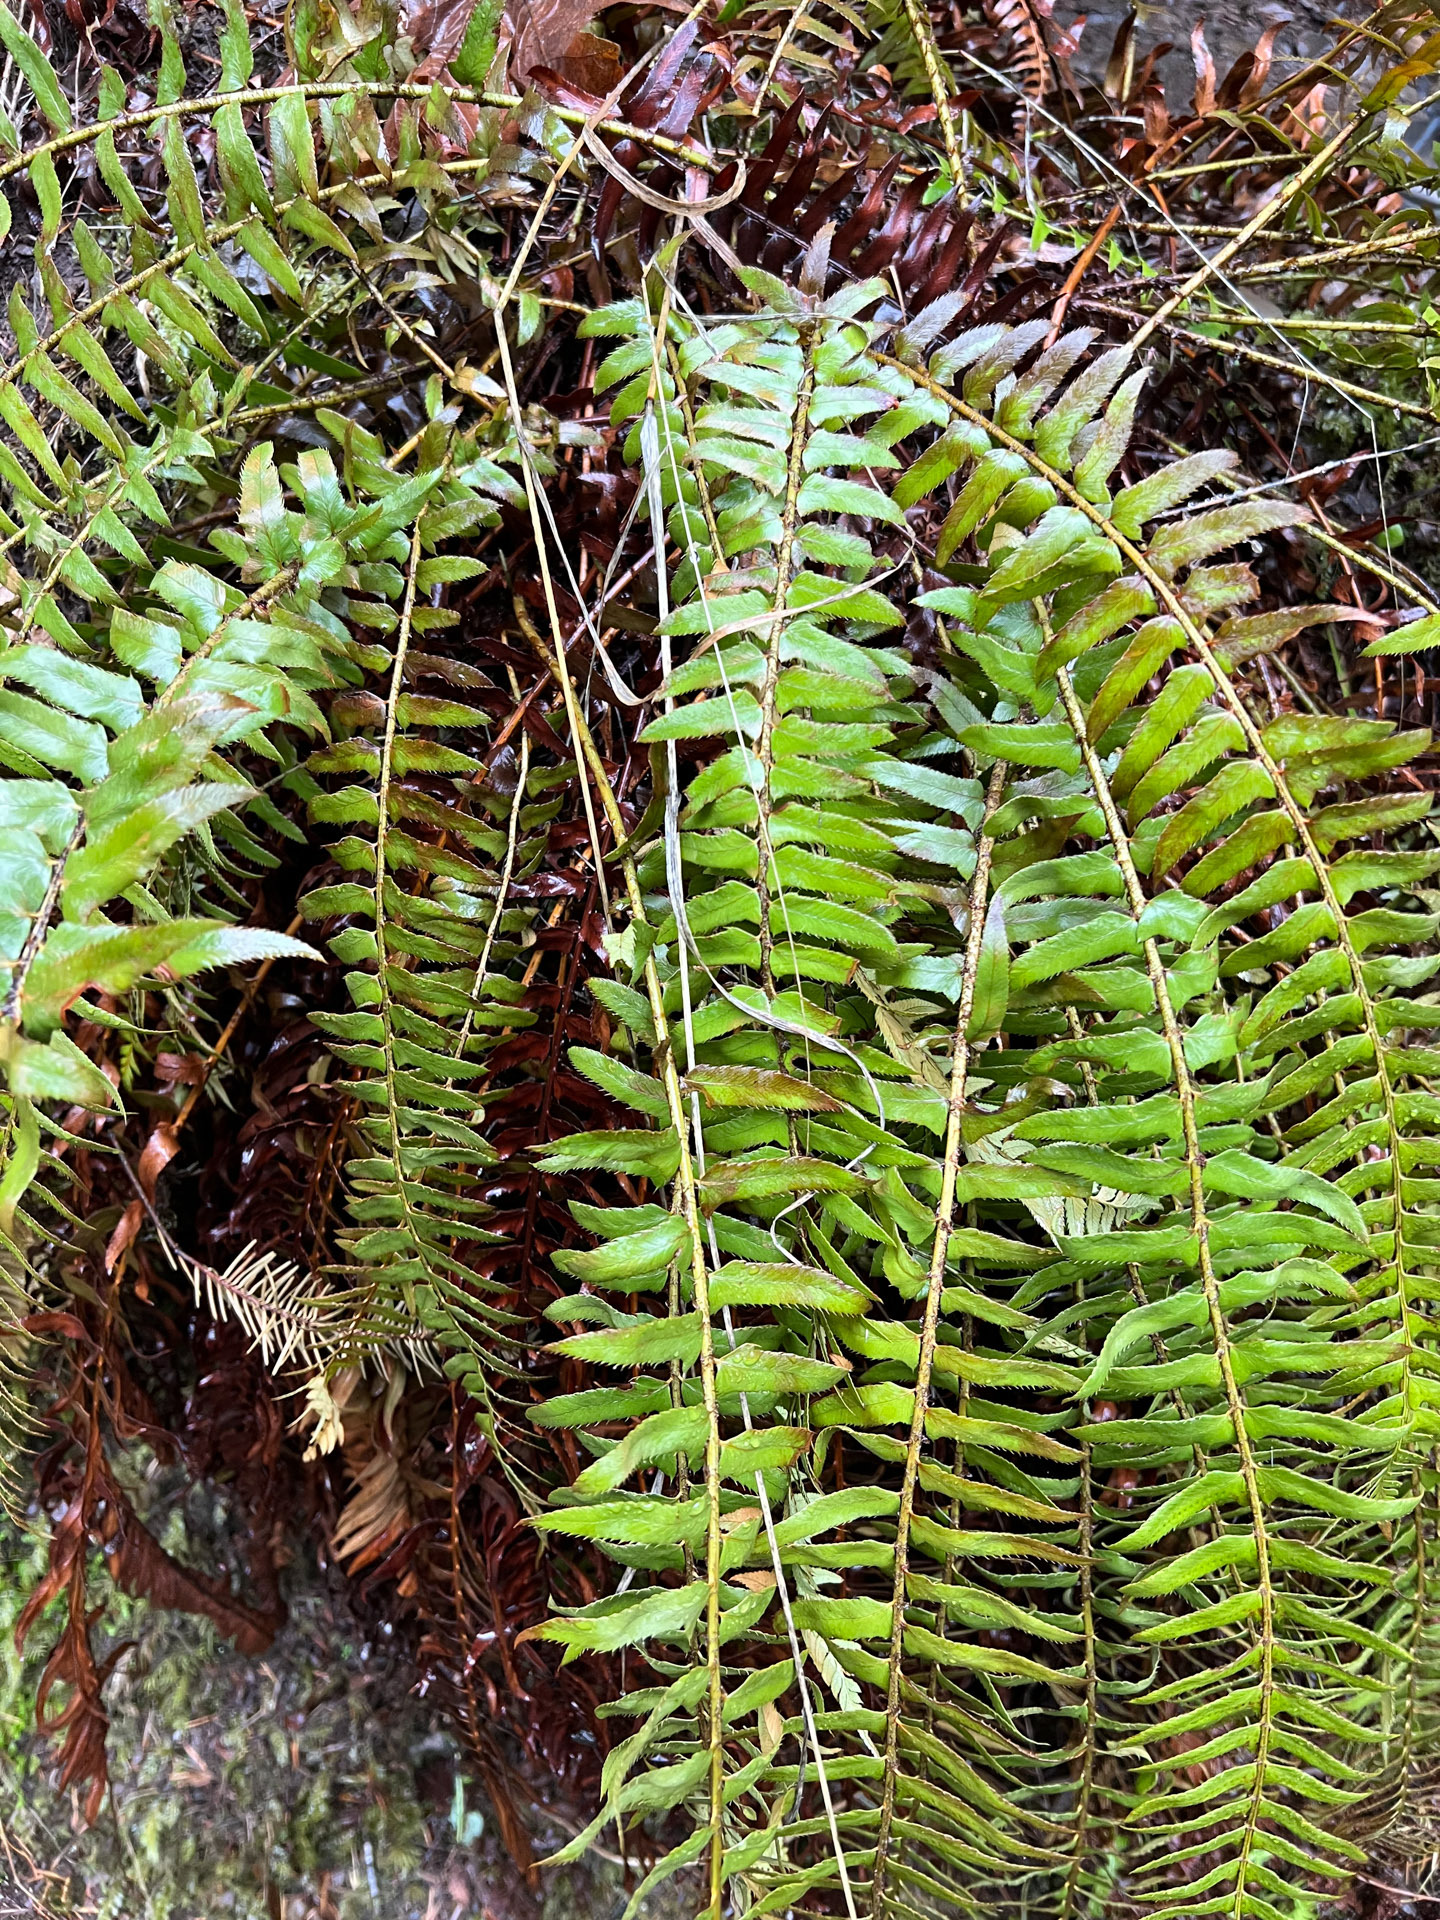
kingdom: Plantae
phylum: Tracheophyta
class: Polypodiopsida
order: Polypodiales
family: Dryopteridaceae
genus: Polystichum
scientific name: Polystichum munitum
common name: Western sword-fern
